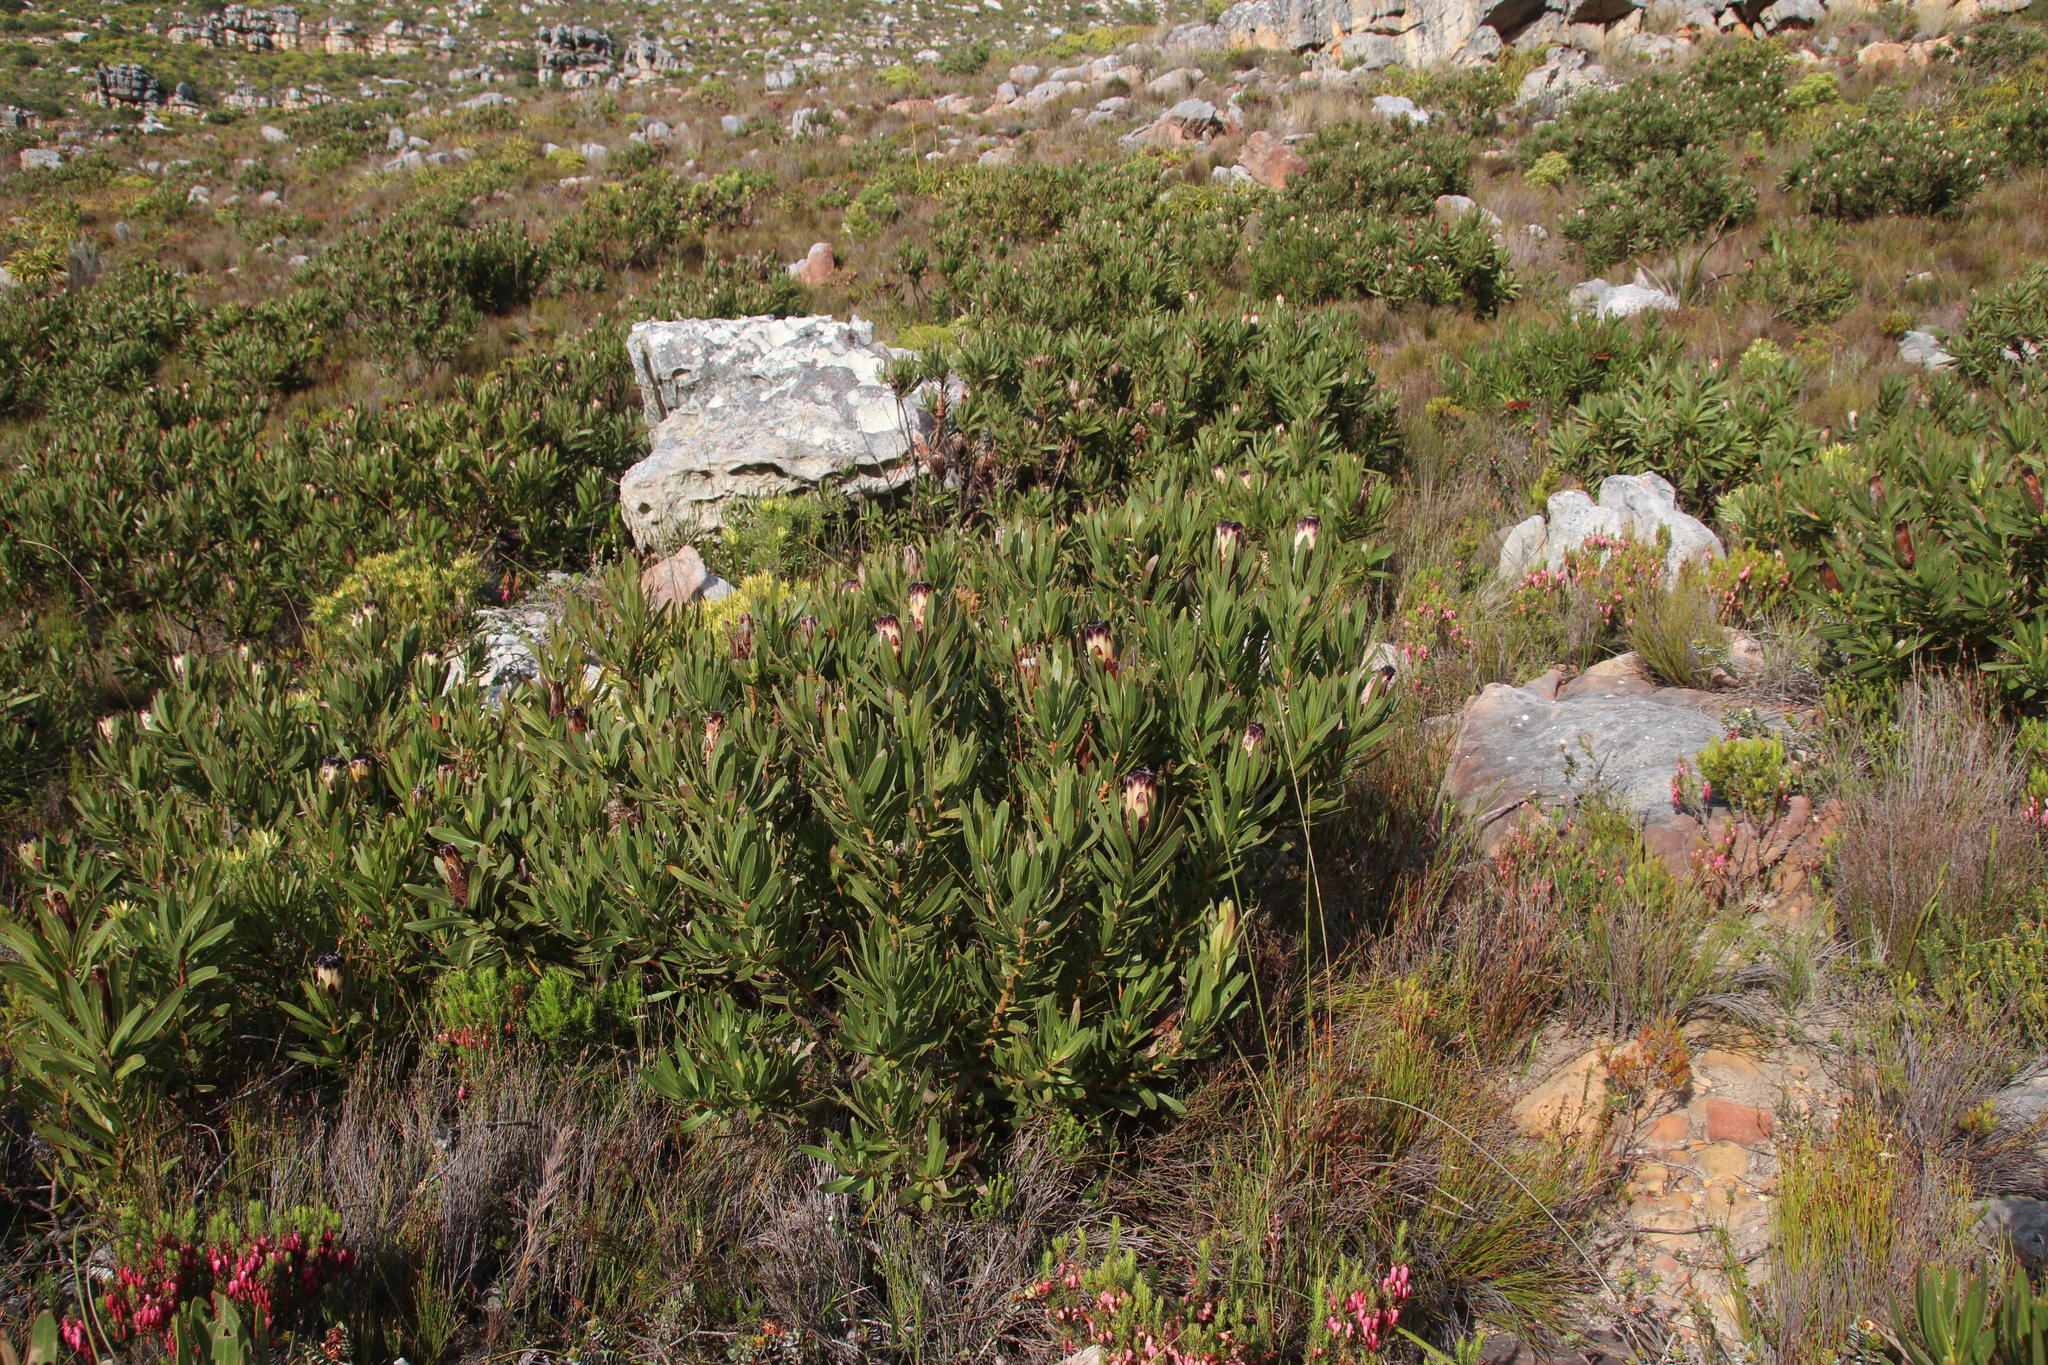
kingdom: Plantae
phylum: Tracheophyta
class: Magnoliopsida
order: Proteales
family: Proteaceae
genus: Protea
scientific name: Protea lepidocarpodendron
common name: Black-bearded protea
